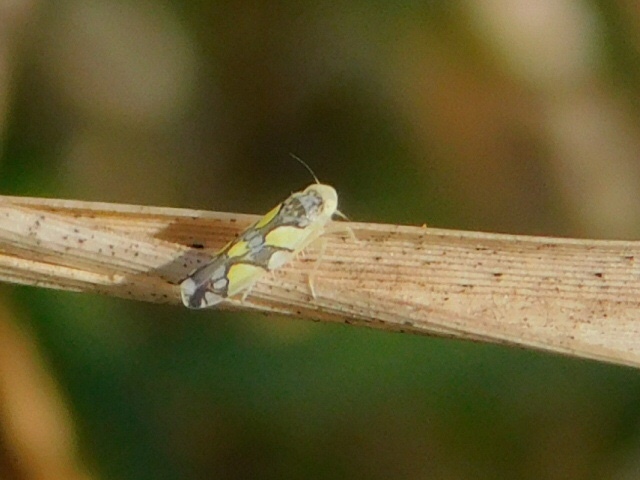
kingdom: Animalia
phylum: Arthropoda
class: Insecta
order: Hemiptera
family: Cicadellidae
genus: Protalebrella
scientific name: Protalebrella brasiliensis
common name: Brasilian leafhopper
